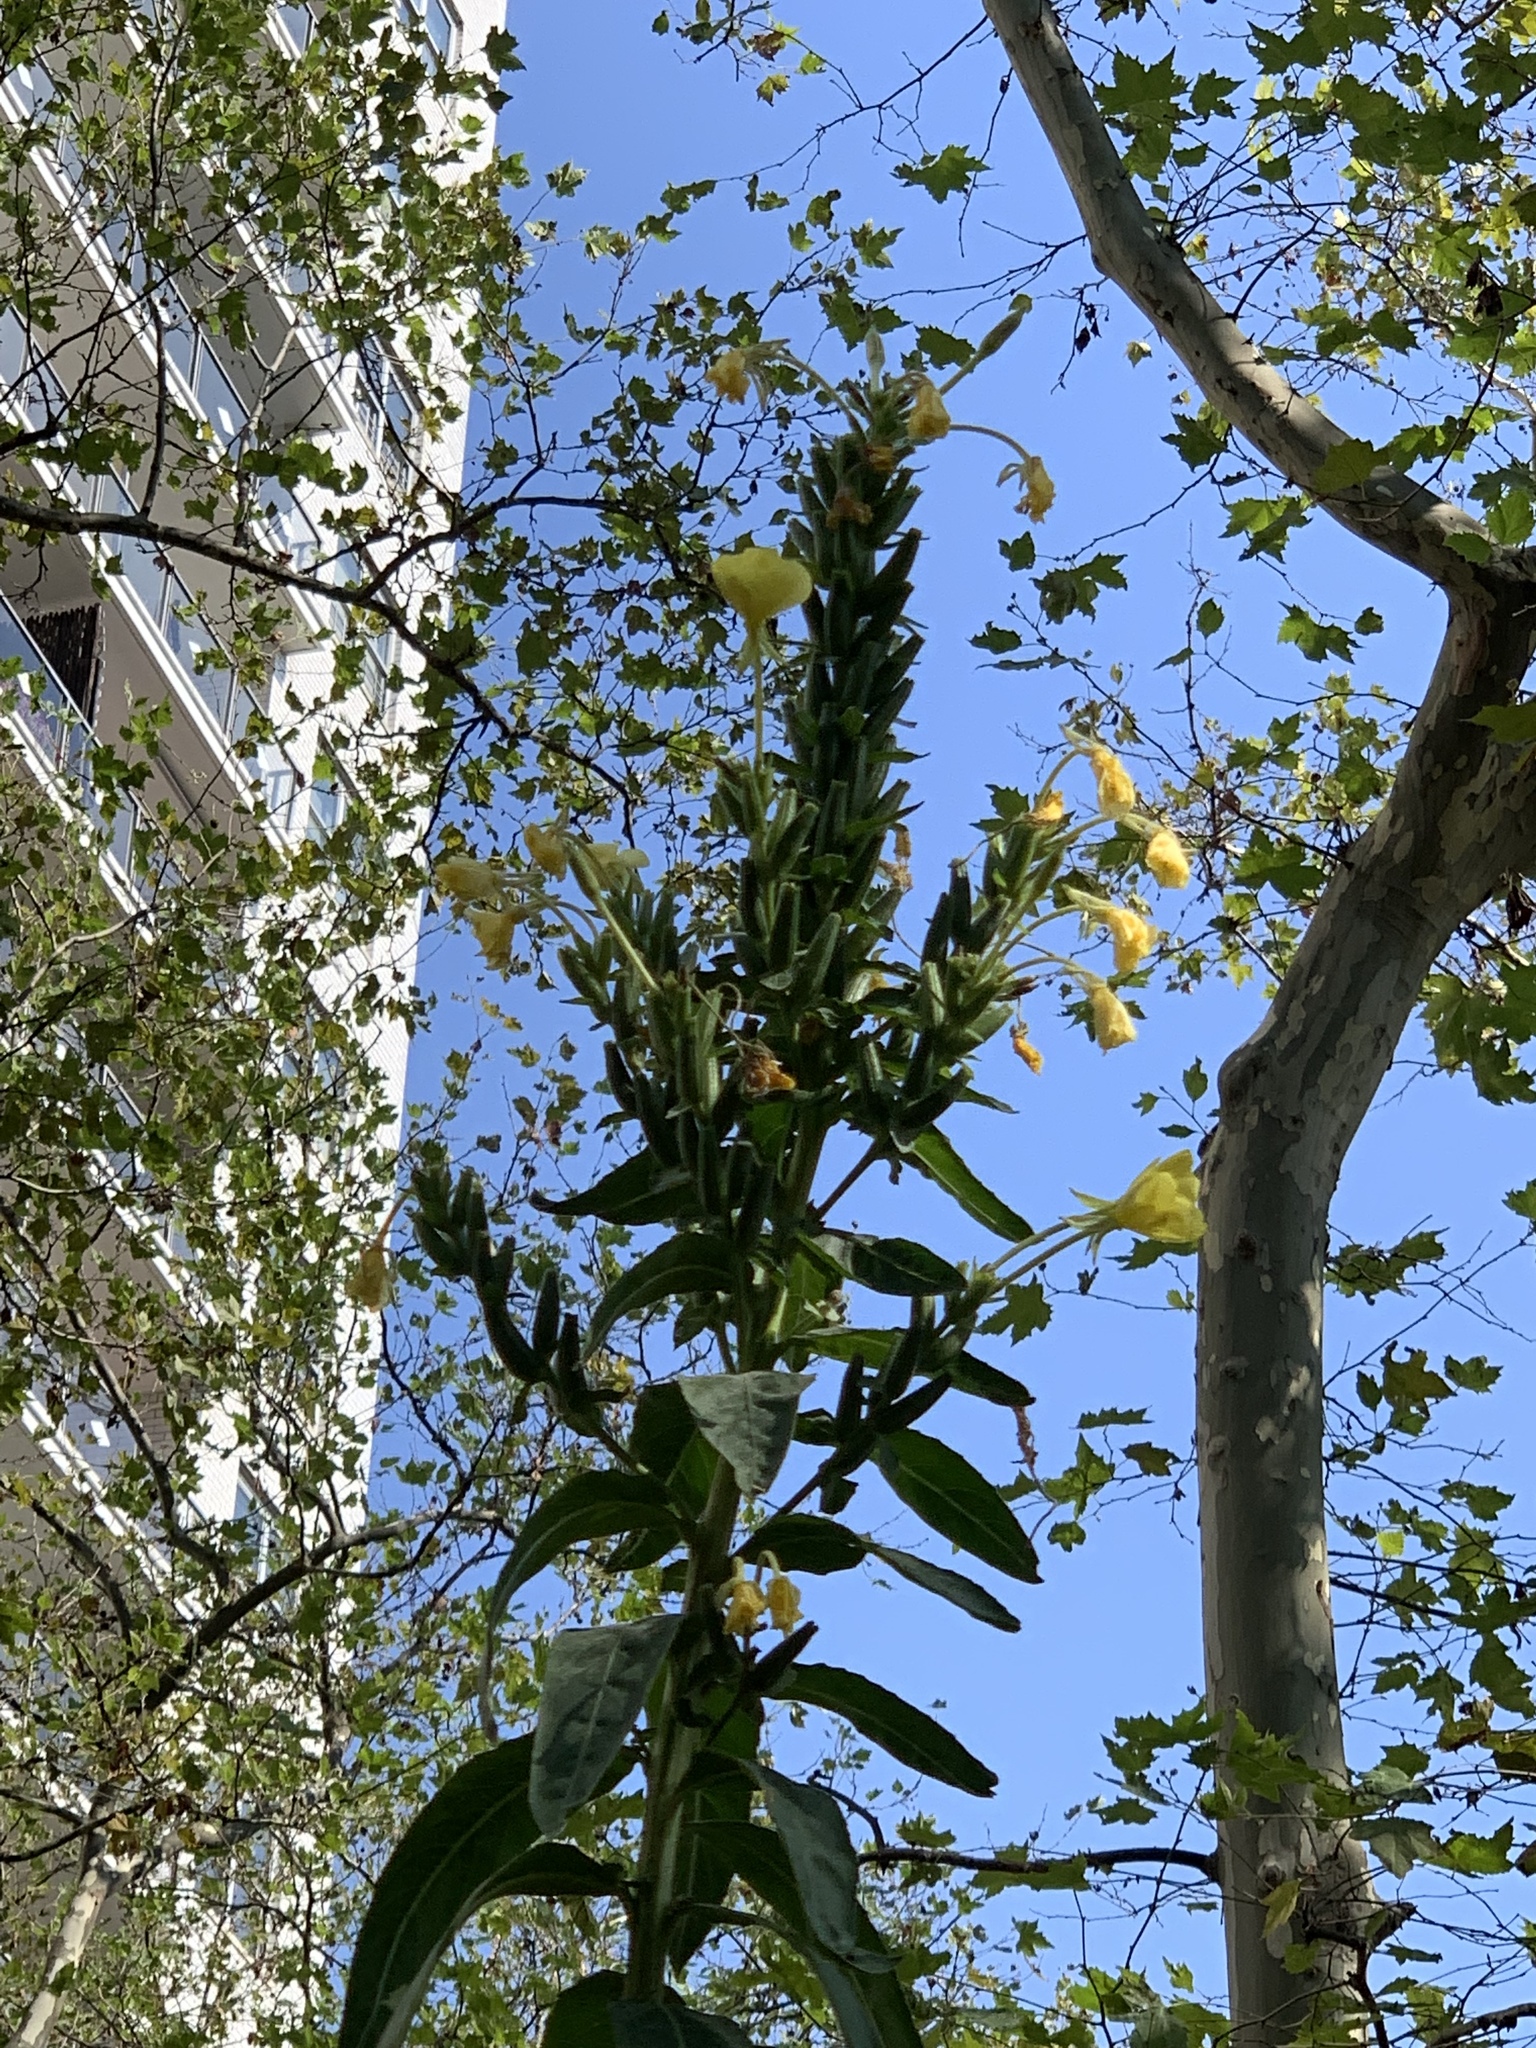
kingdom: Plantae
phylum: Tracheophyta
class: Magnoliopsida
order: Myrtales
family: Onagraceae
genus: Oenothera
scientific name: Oenothera biennis
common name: Common evening-primrose
